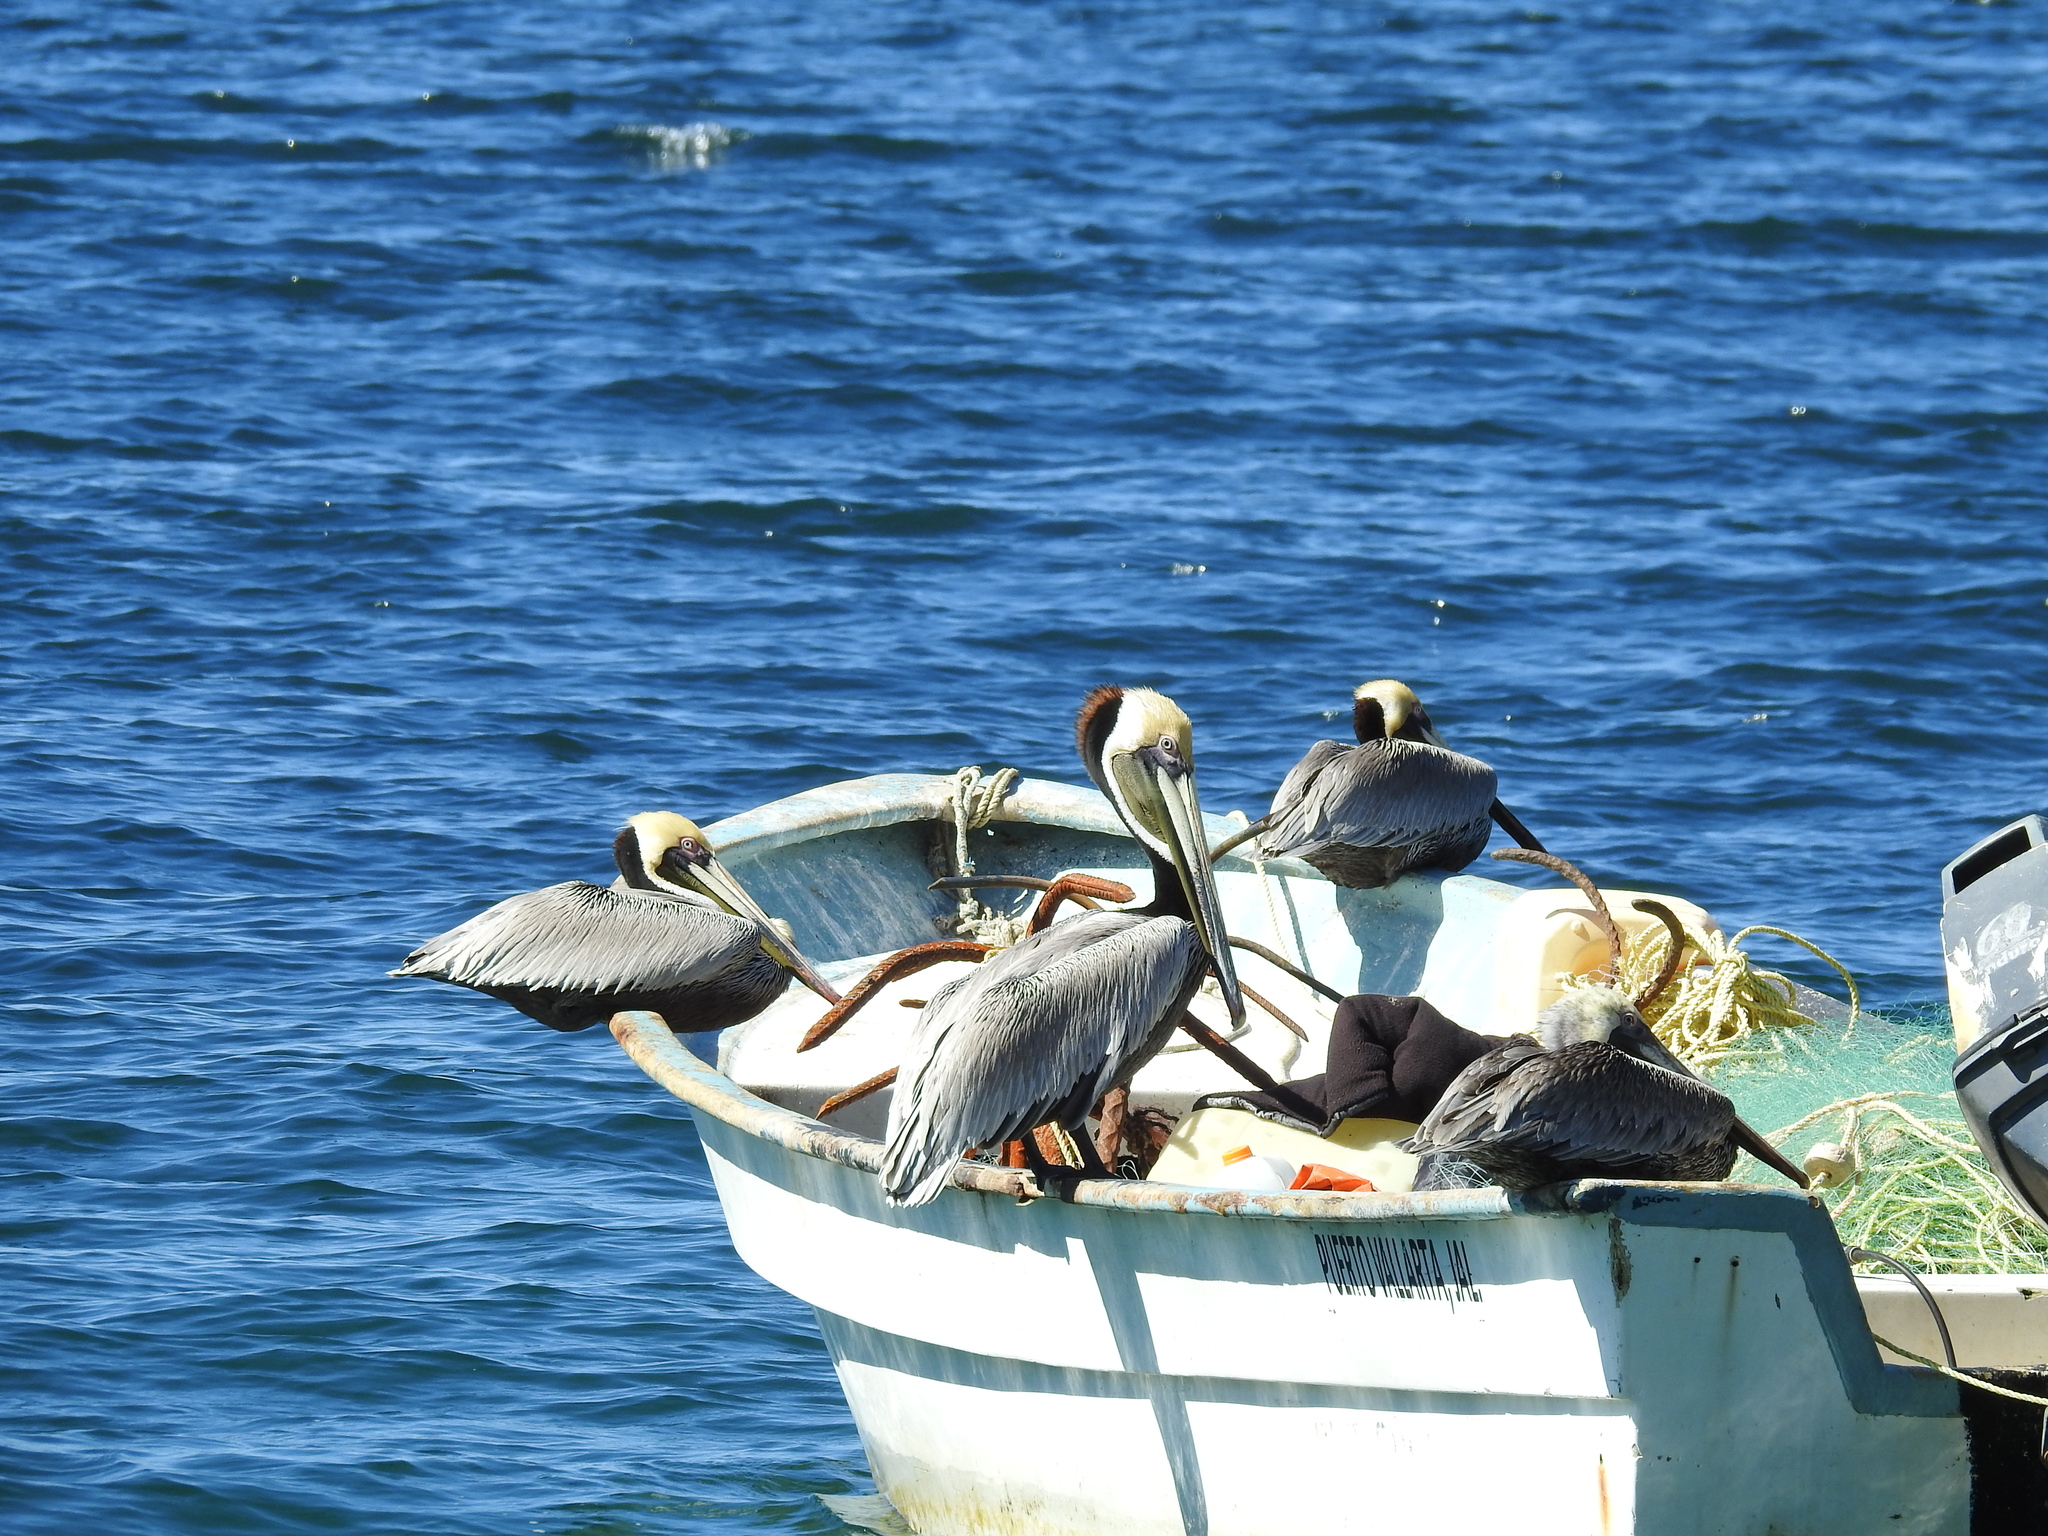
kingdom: Animalia
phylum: Chordata
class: Aves
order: Pelecaniformes
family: Pelecanidae
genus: Pelecanus
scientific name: Pelecanus occidentalis
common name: Brown pelican
